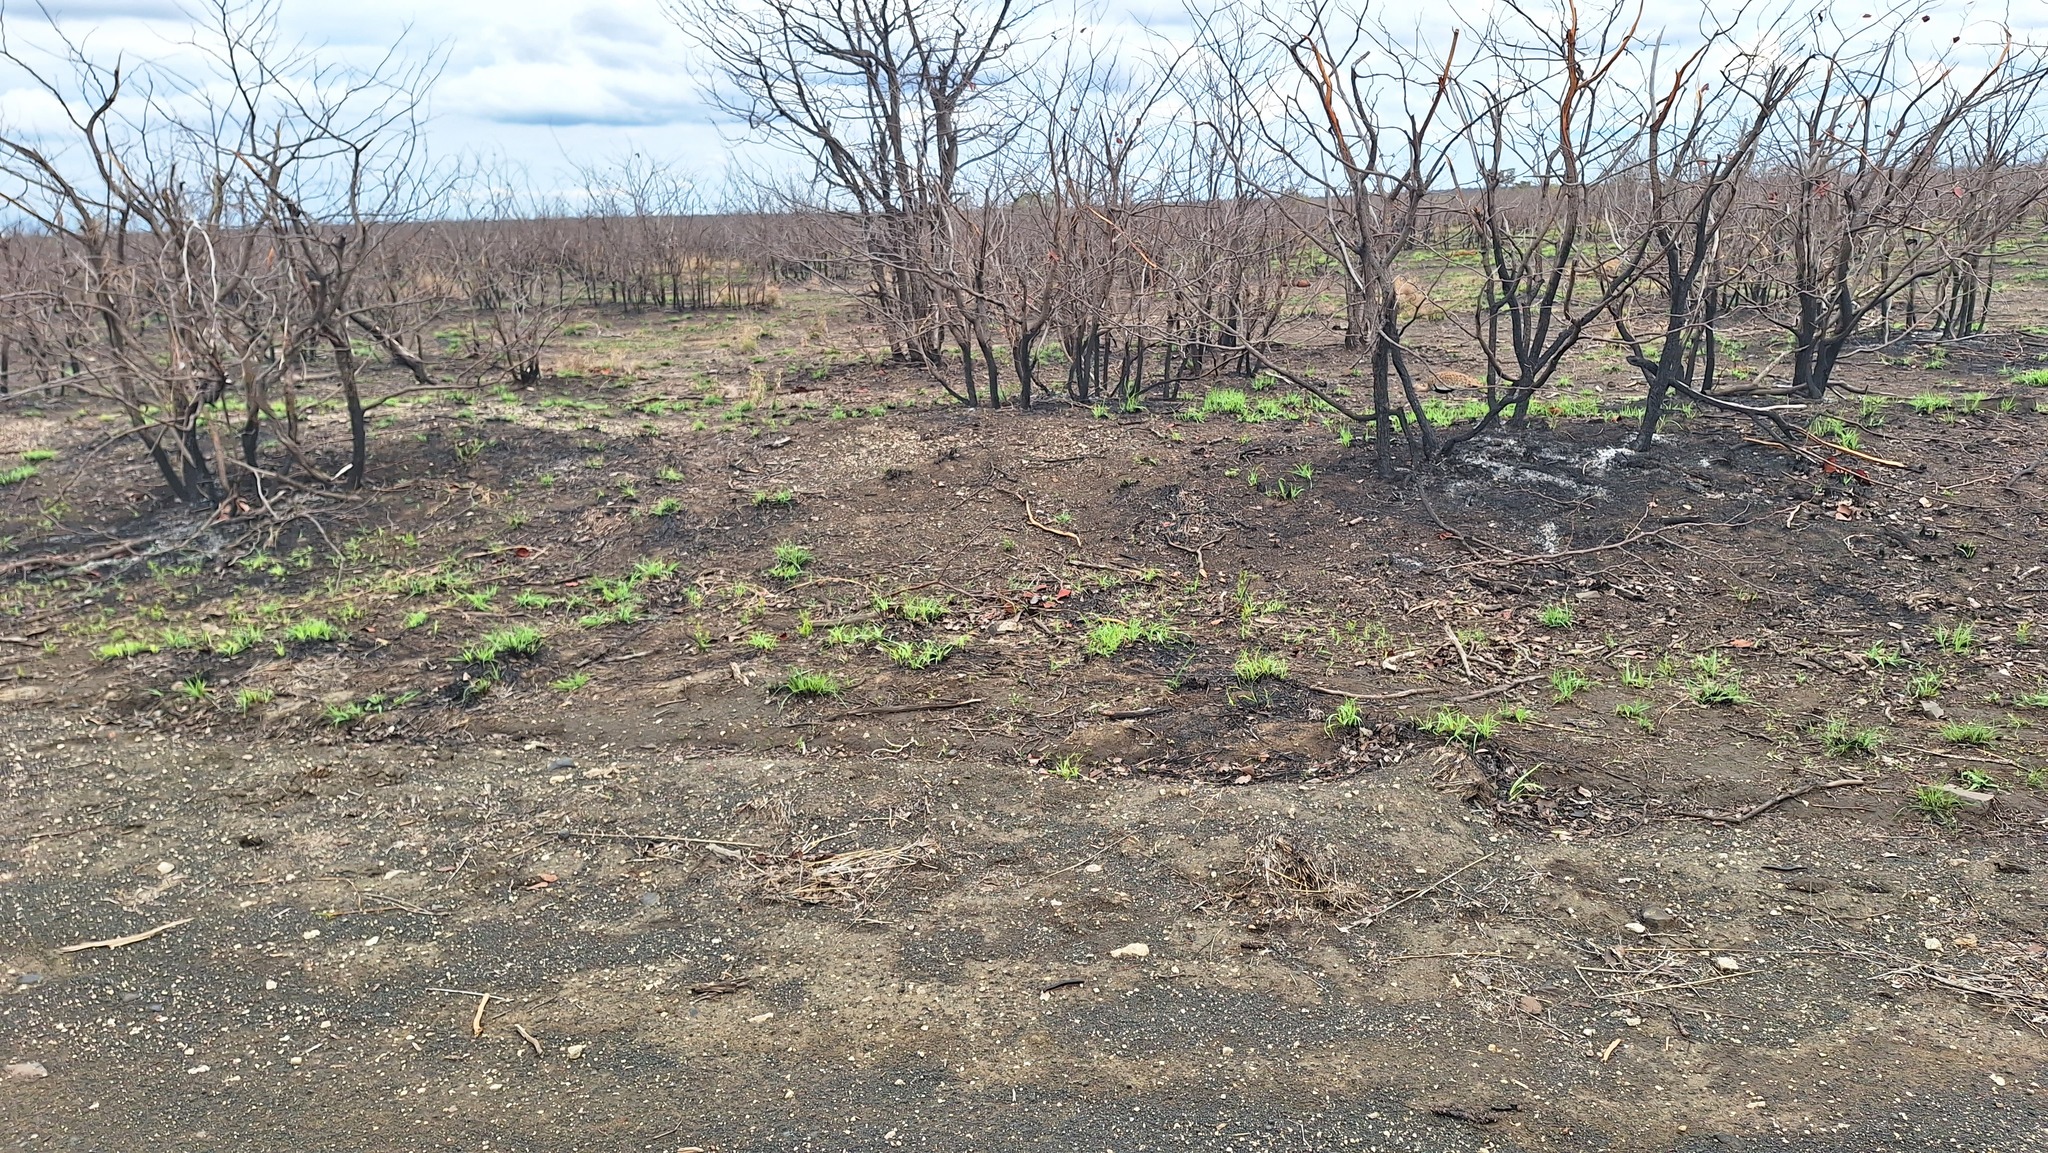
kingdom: Animalia
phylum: Chordata
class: Aves
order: Otidiformes
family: Otididae
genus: Lophotis
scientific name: Lophotis ruficrista
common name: Red-crested korhaan
